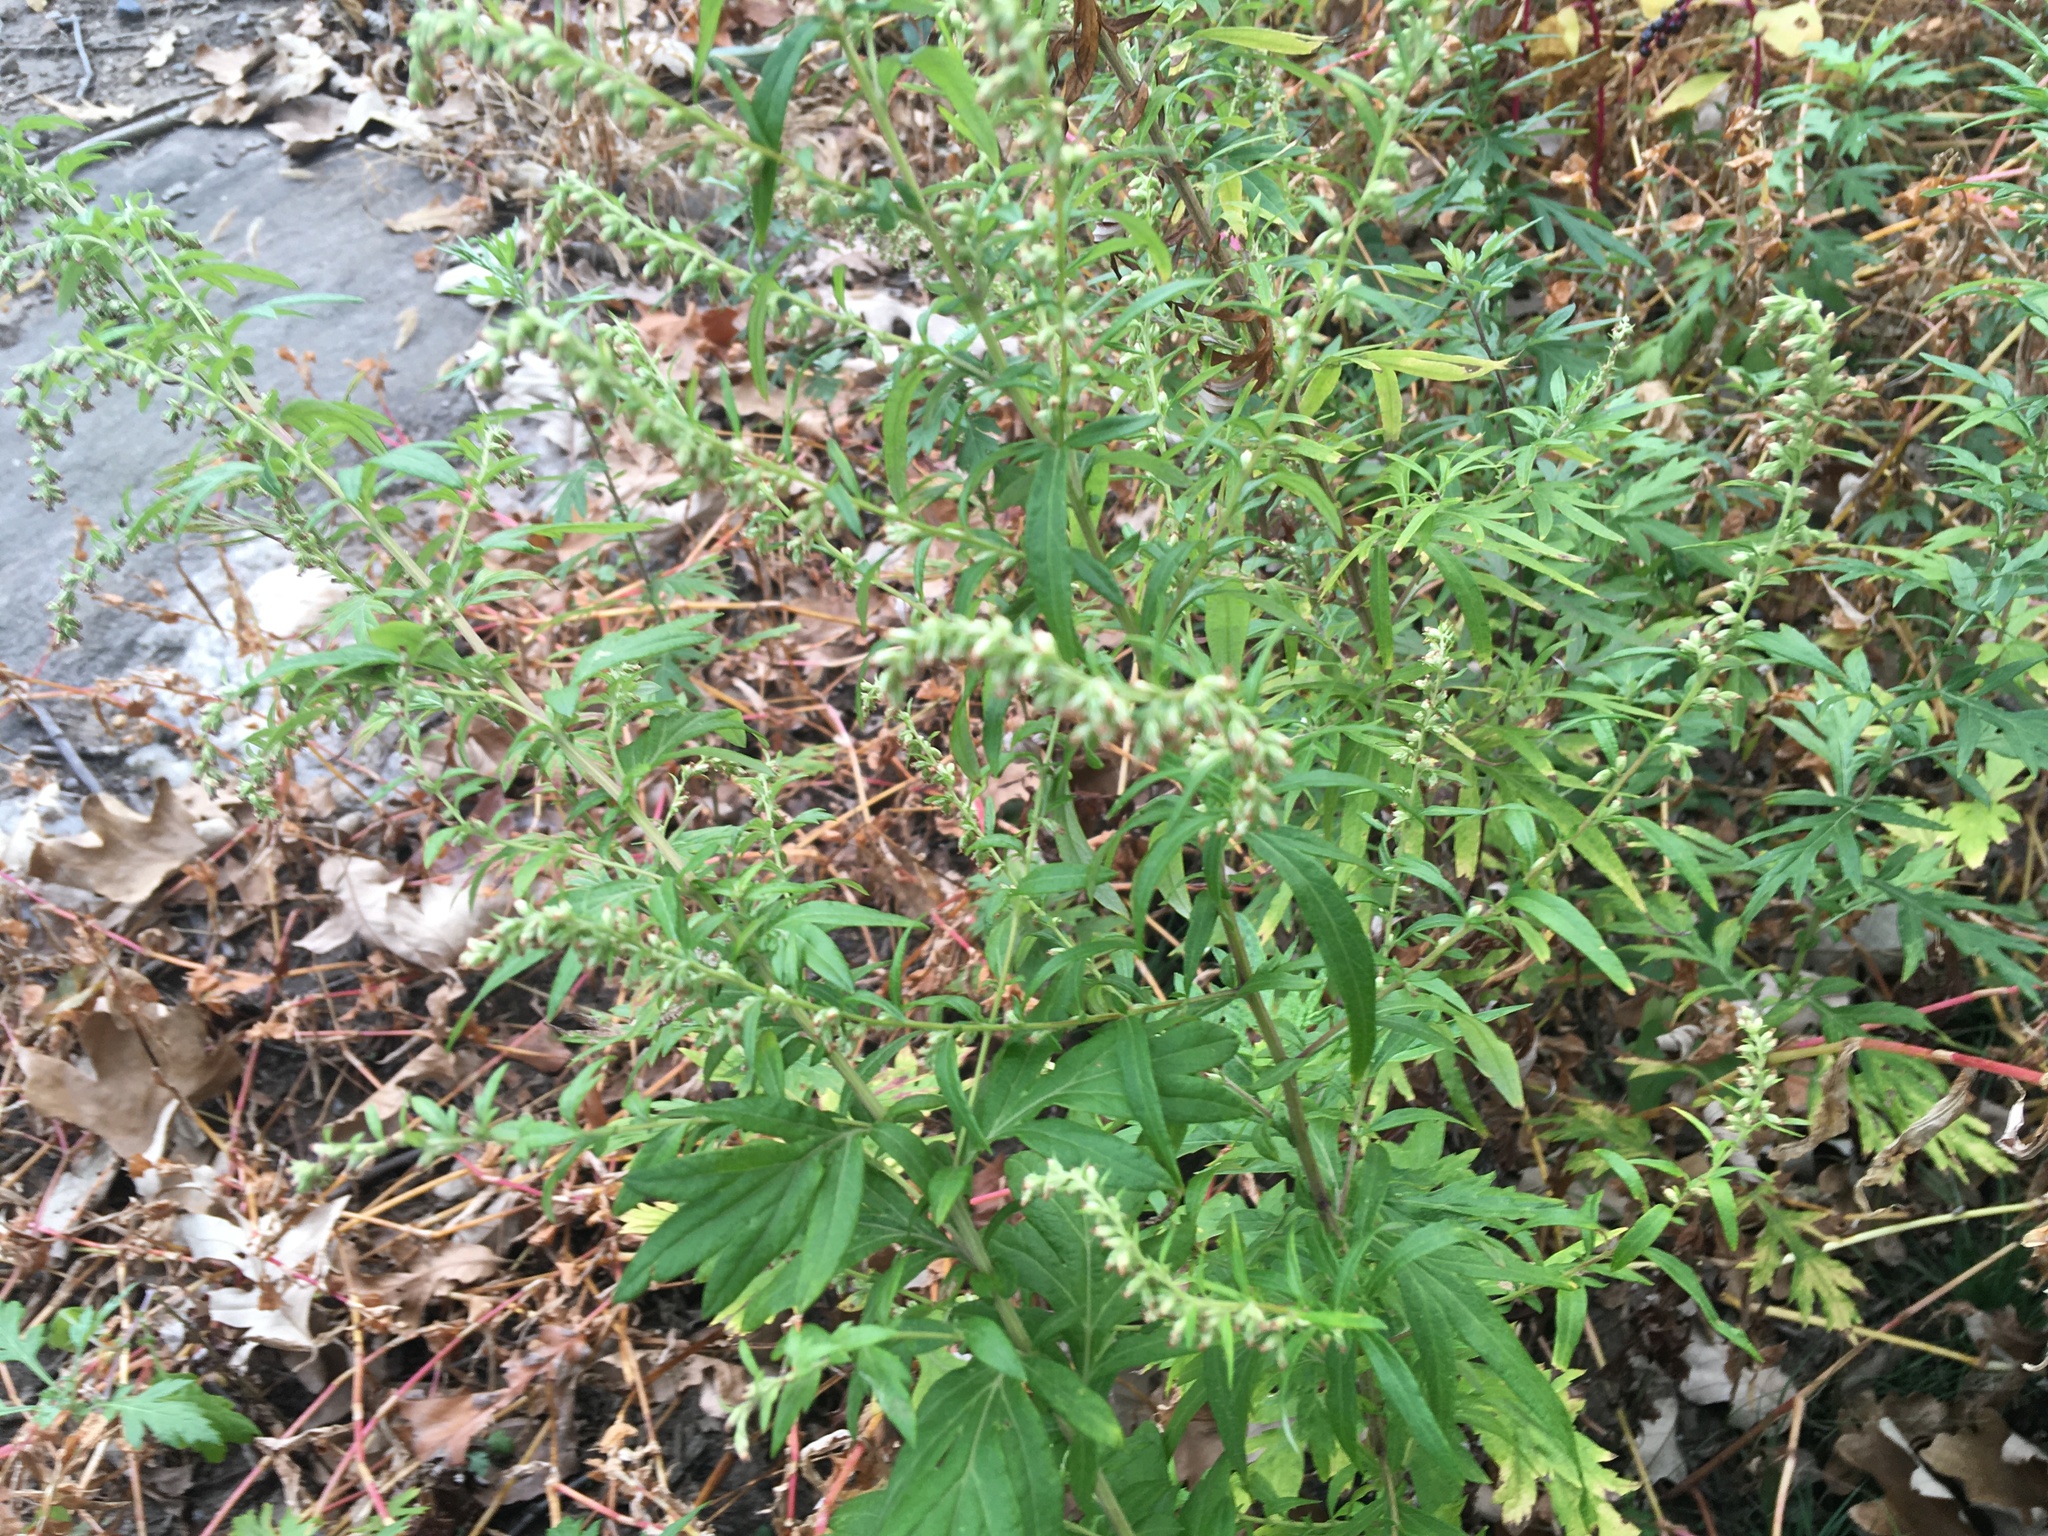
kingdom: Plantae
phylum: Tracheophyta
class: Magnoliopsida
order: Asterales
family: Asteraceae
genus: Artemisia
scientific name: Artemisia vulgaris
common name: Mugwort
